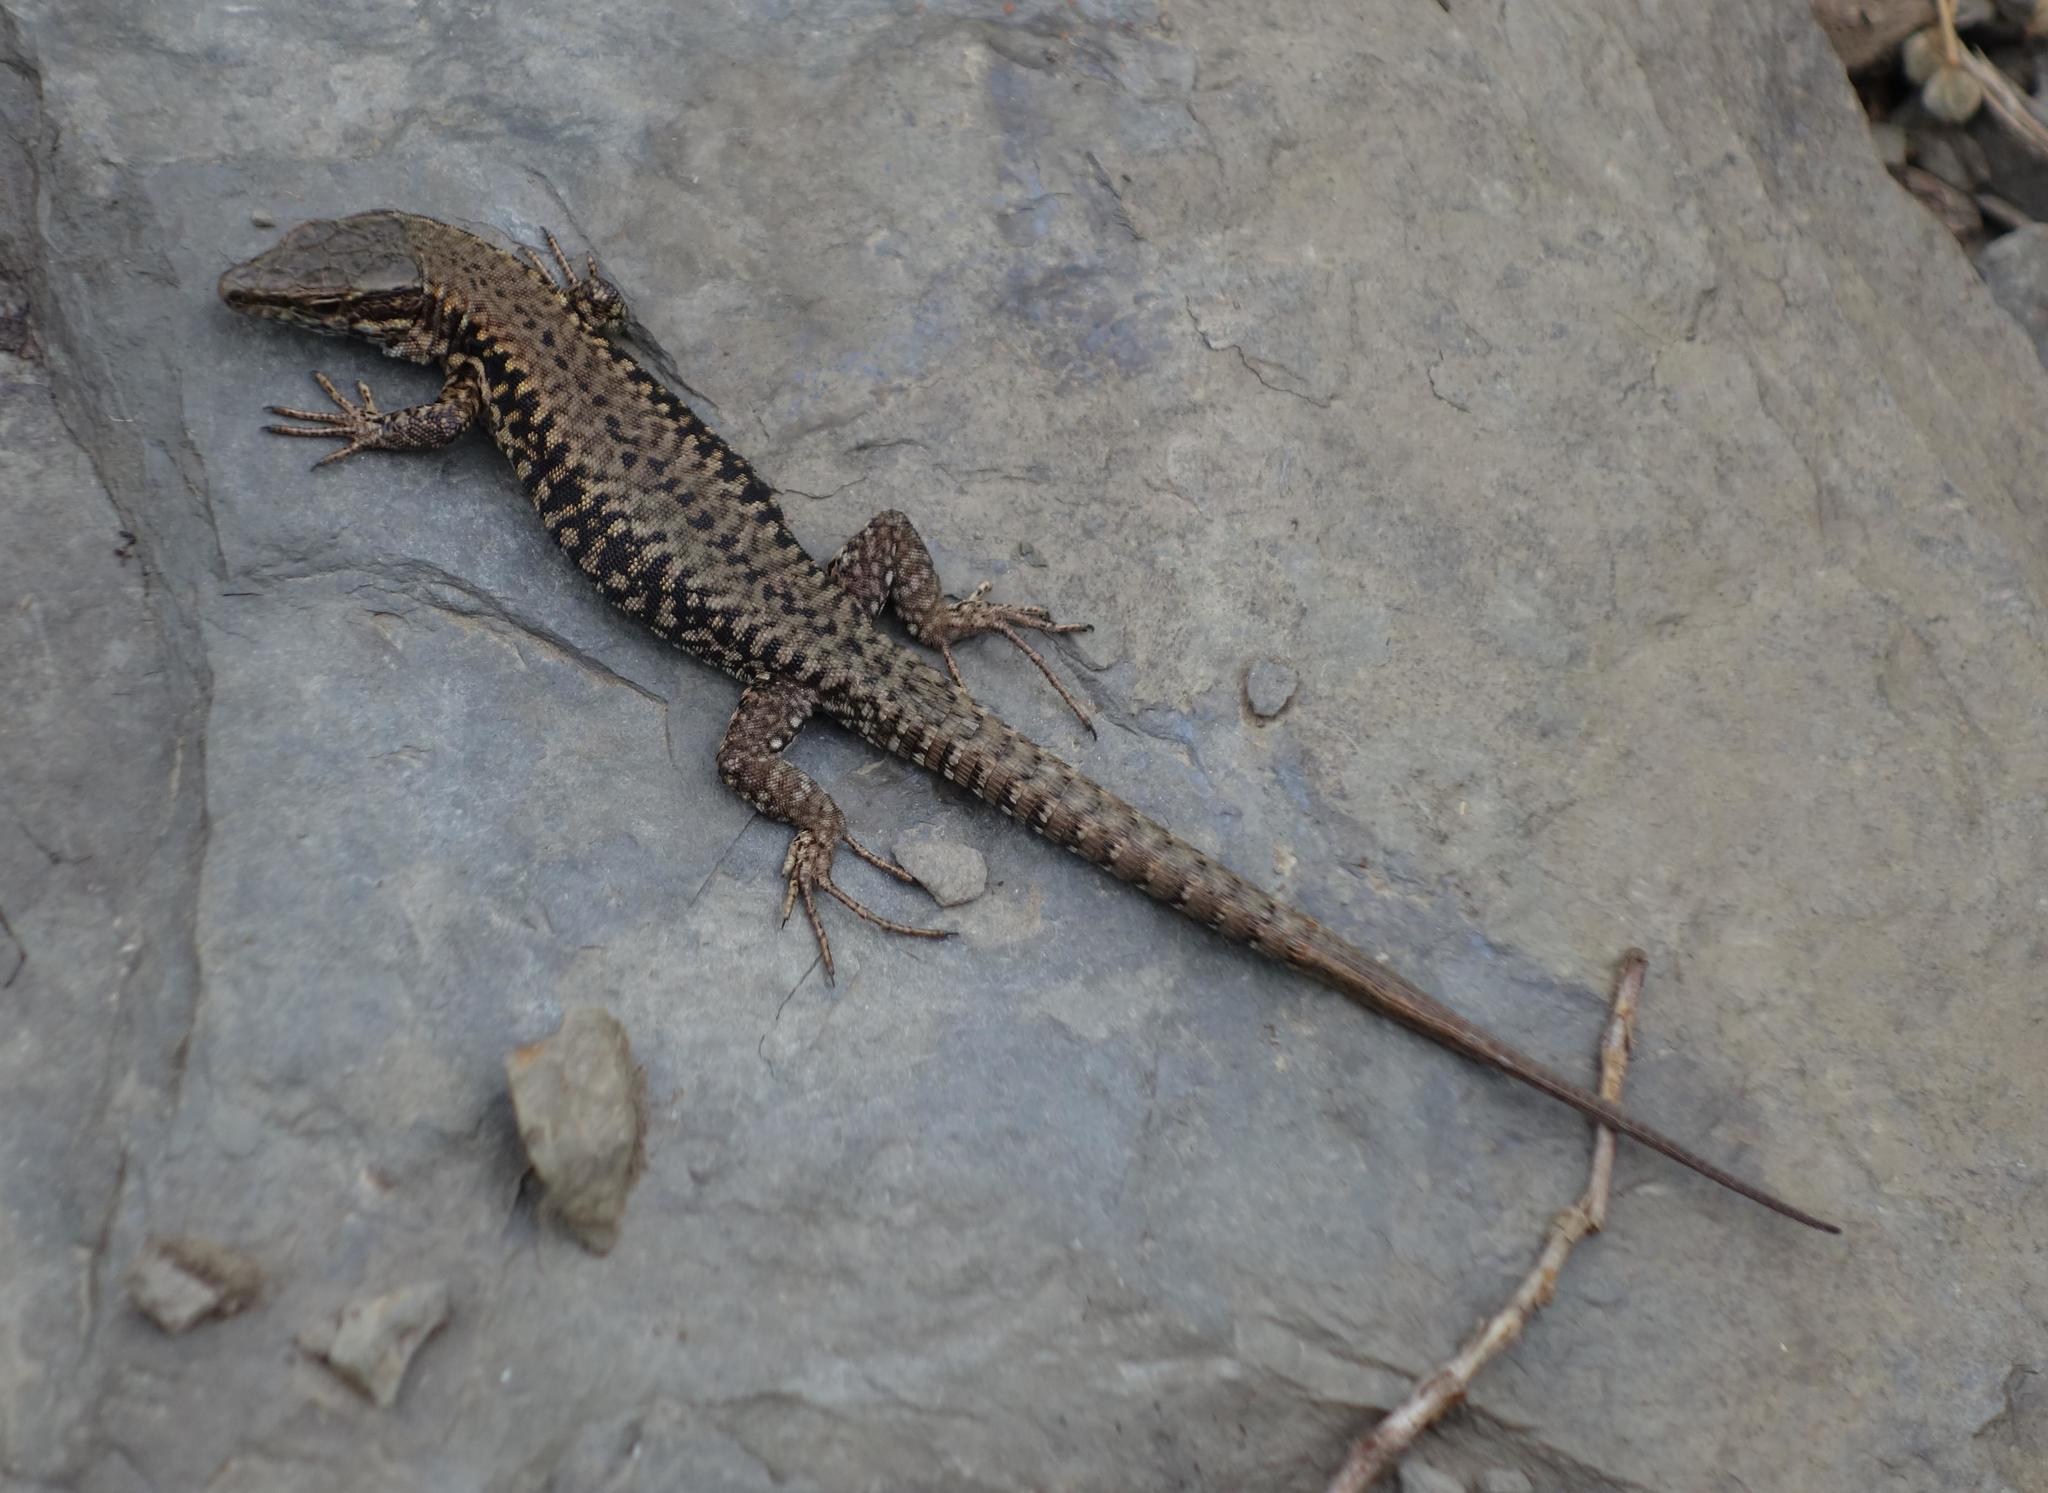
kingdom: Animalia
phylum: Chordata
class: Squamata
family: Lacertidae
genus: Podarcis
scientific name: Podarcis muralis
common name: Common wall lizard
